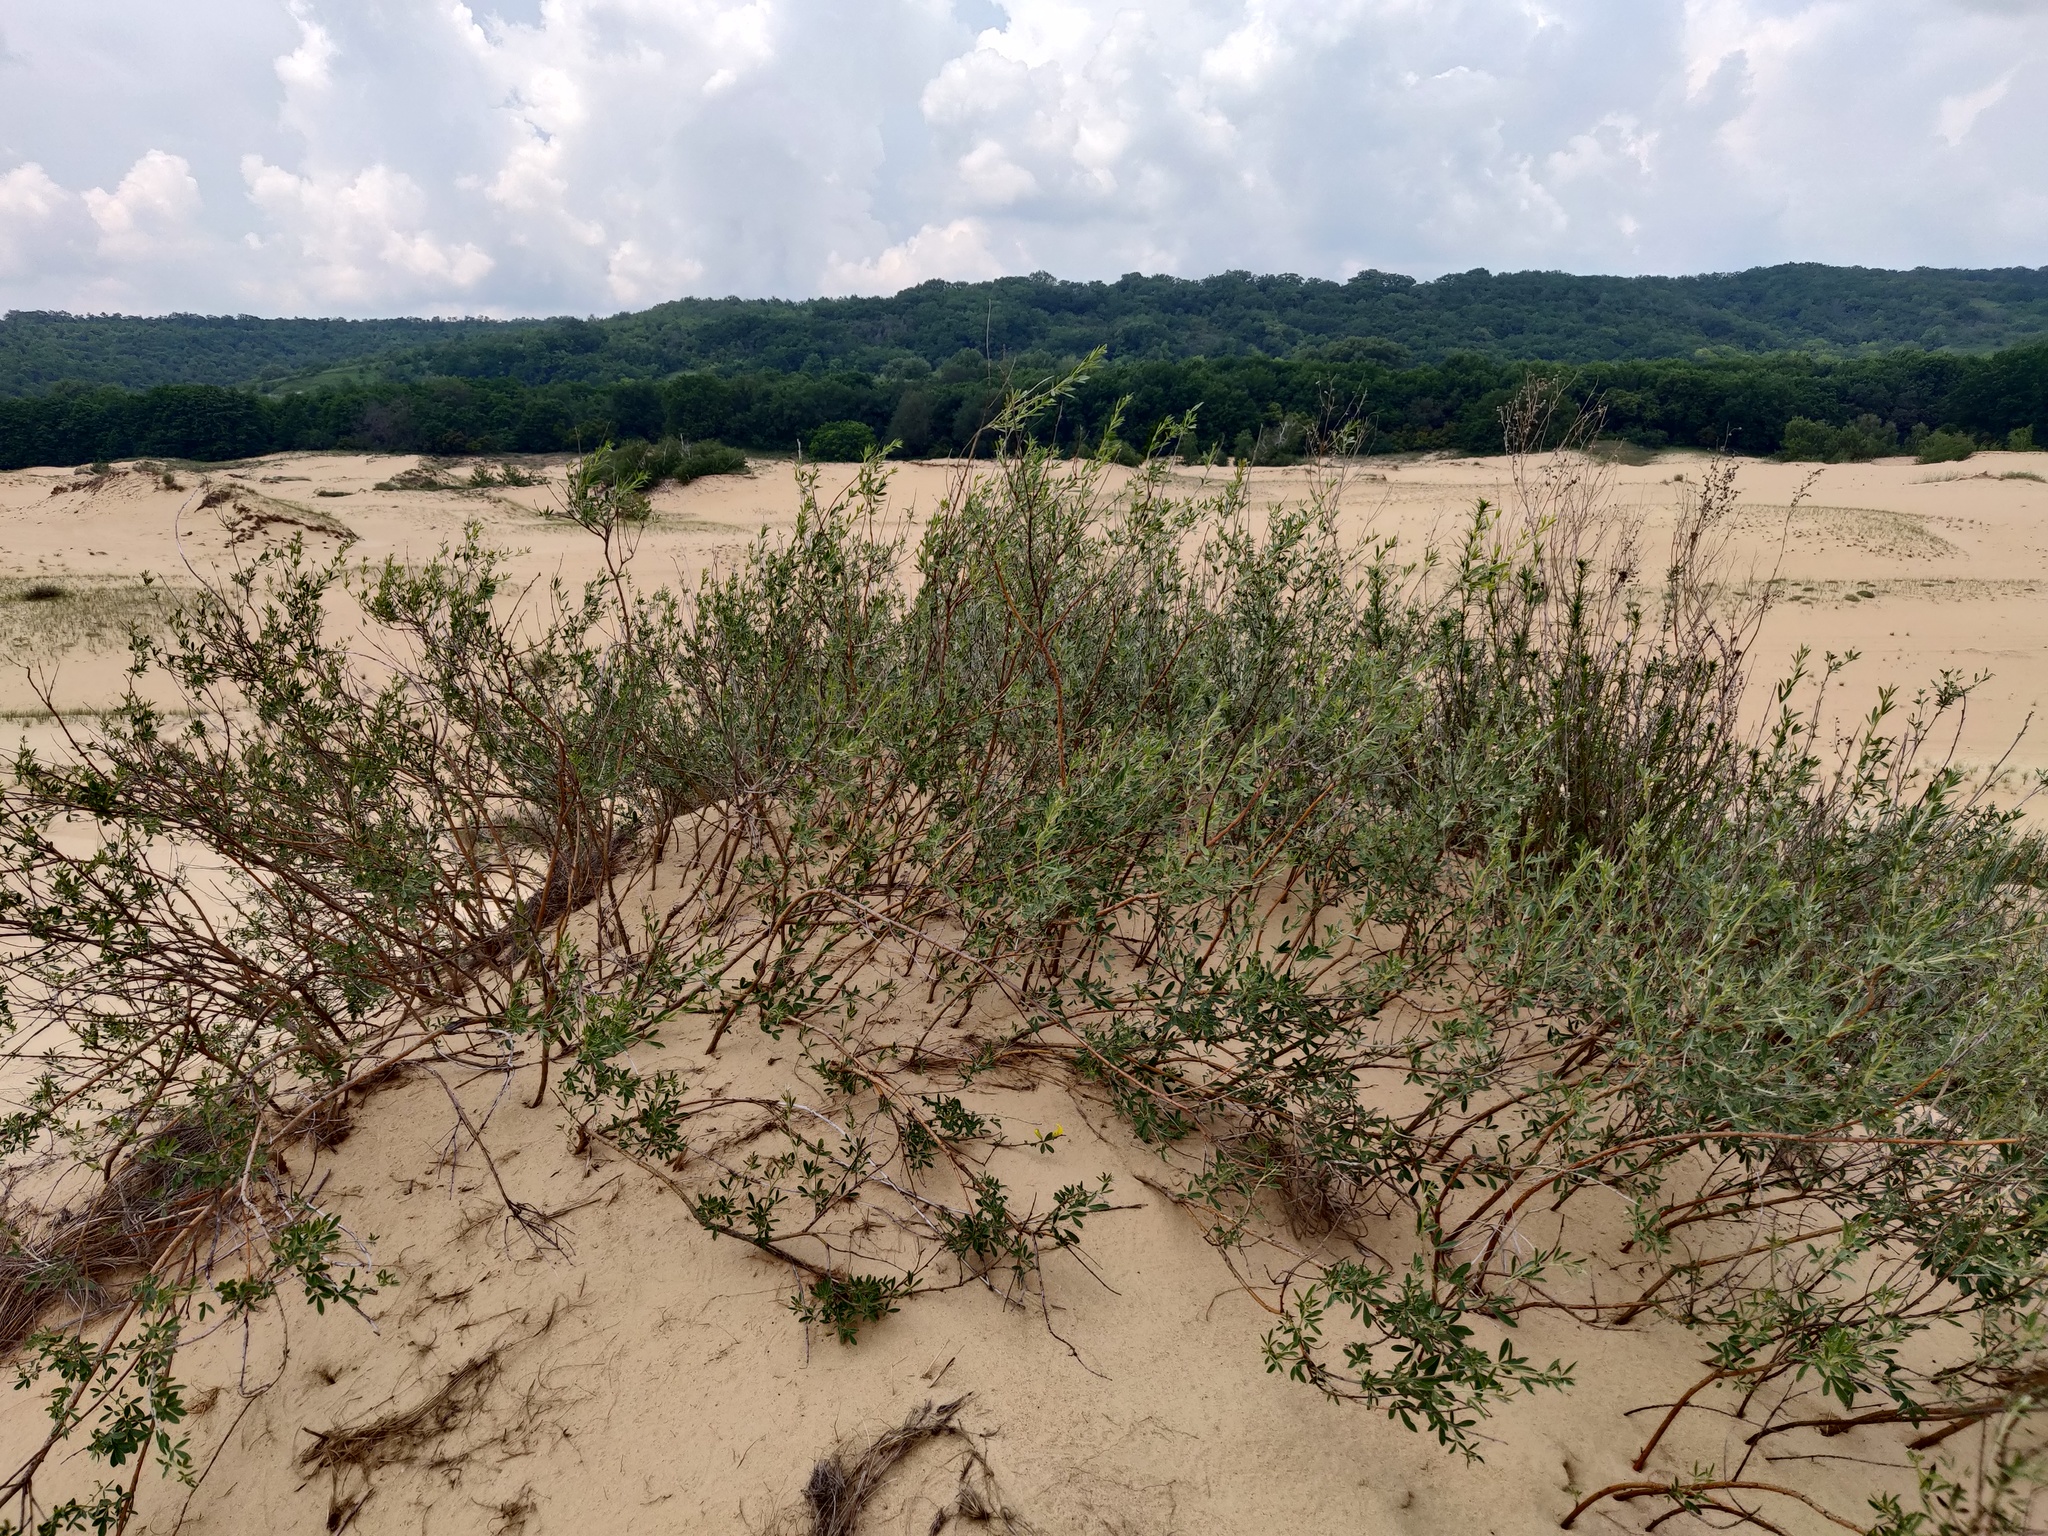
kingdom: Plantae
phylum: Tracheophyta
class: Magnoliopsida
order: Fabales
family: Fabaceae
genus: Chamaecytisus
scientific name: Chamaecytisus ruthenicus
